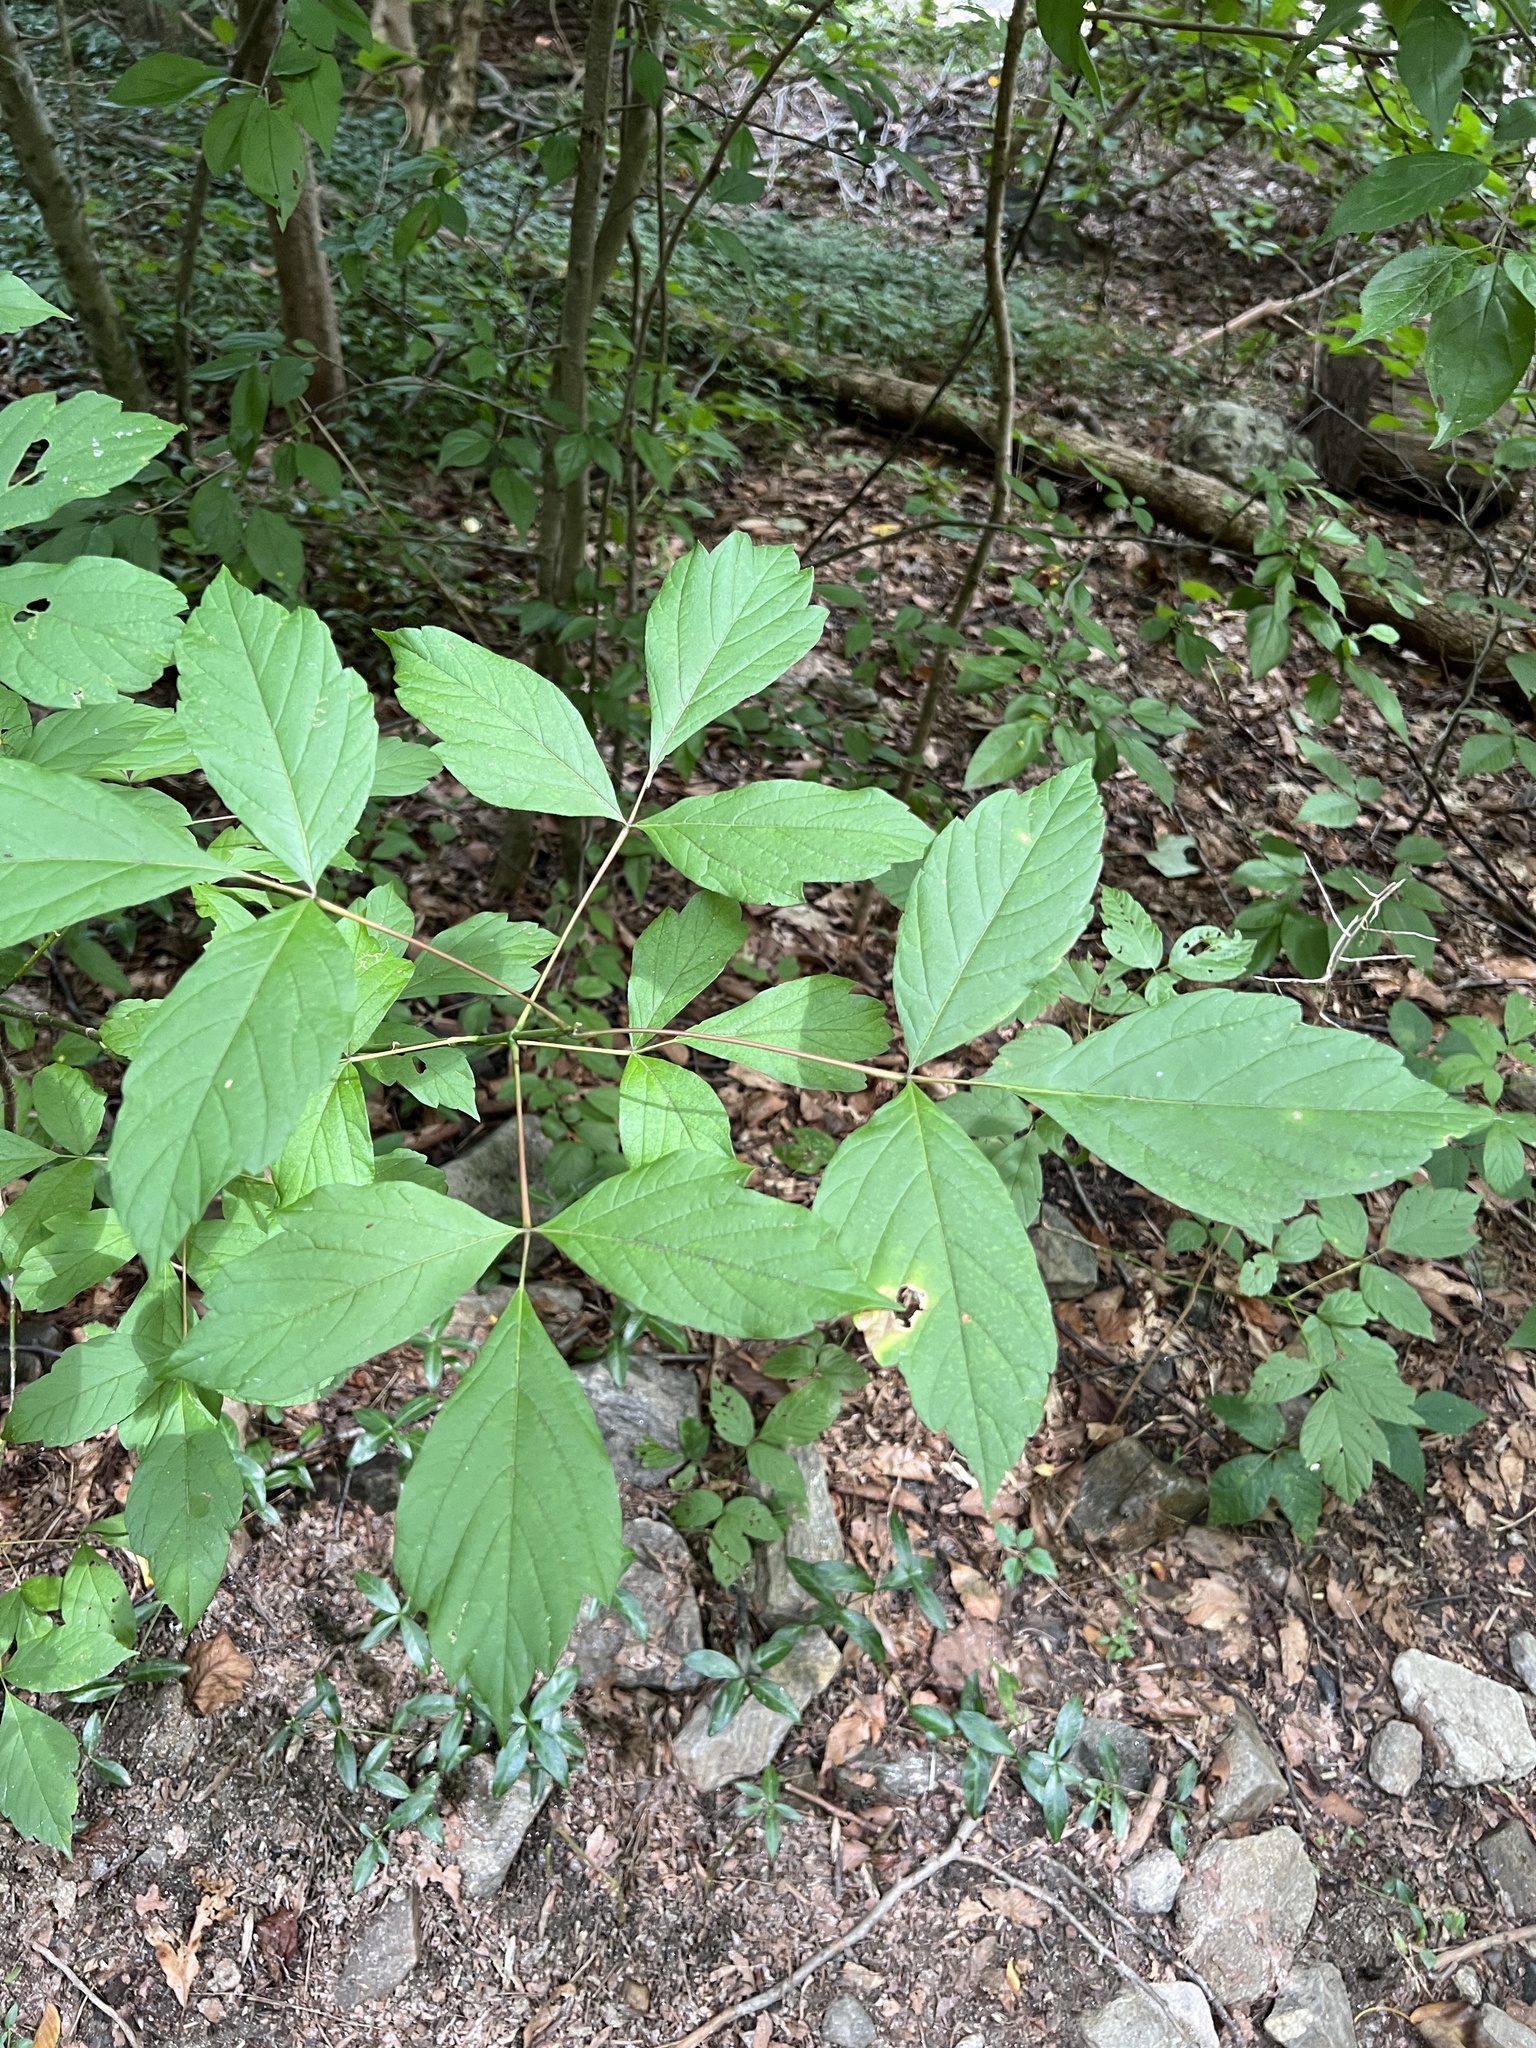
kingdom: Plantae
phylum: Tracheophyta
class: Magnoliopsida
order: Sapindales
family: Sapindaceae
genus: Acer
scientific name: Acer negundo
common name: Ashleaf maple
